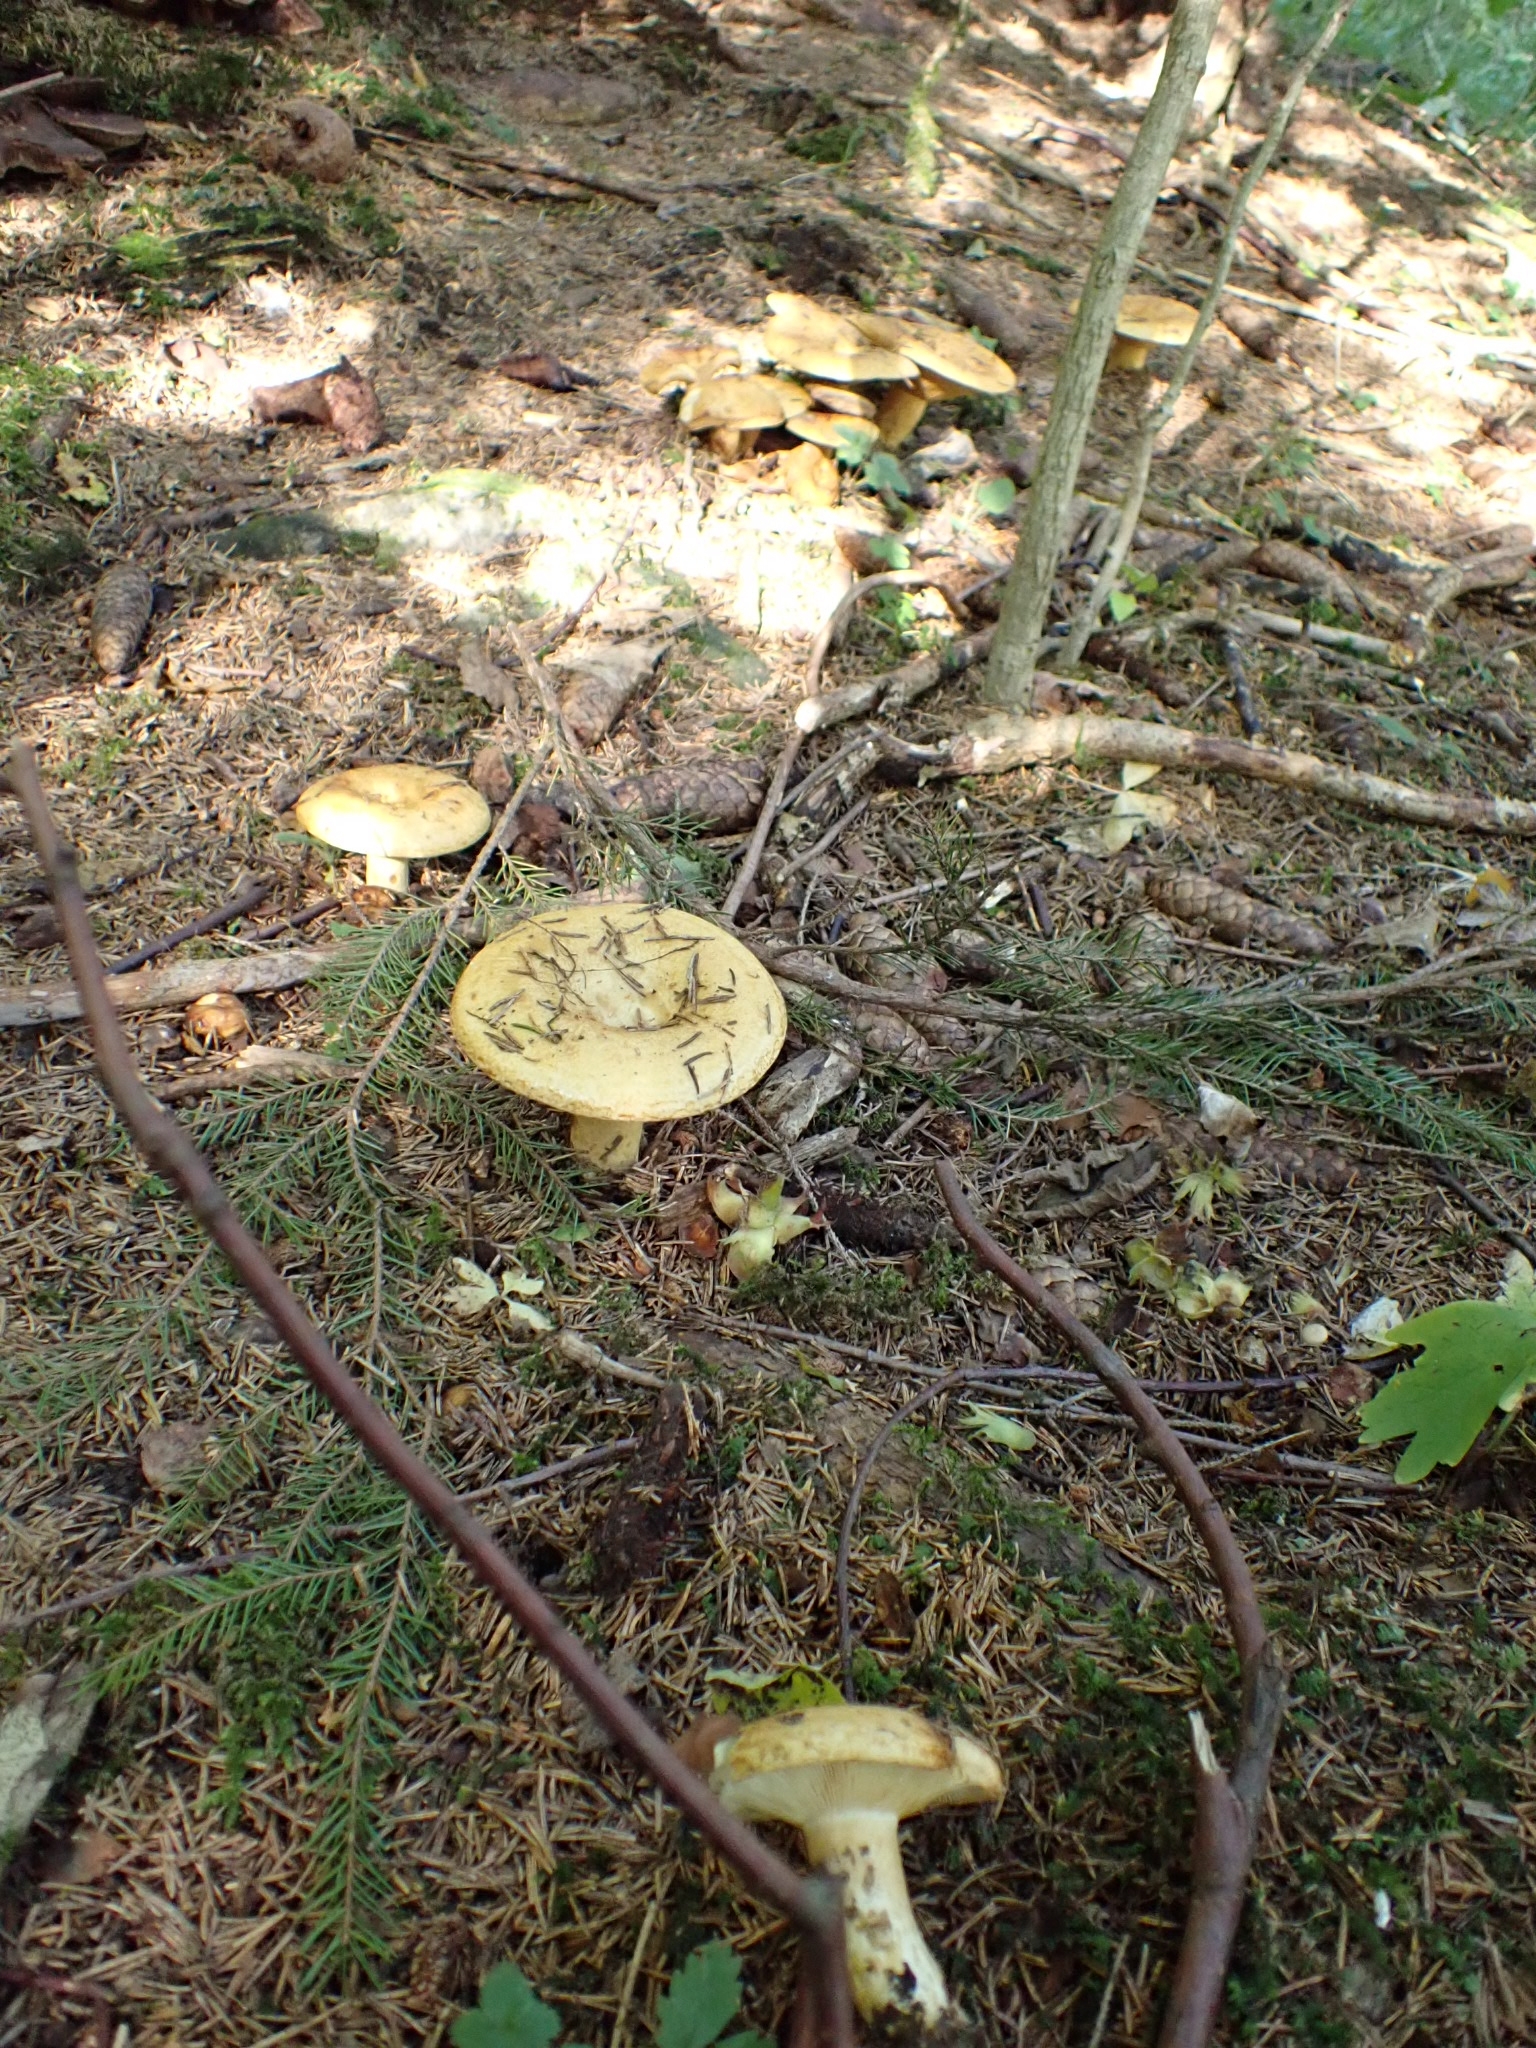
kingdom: Fungi
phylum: Basidiomycota
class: Agaricomycetes
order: Russulales
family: Russulaceae
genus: Lactarius
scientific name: Lactarius scrobiculatus
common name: Spotted milkcap
